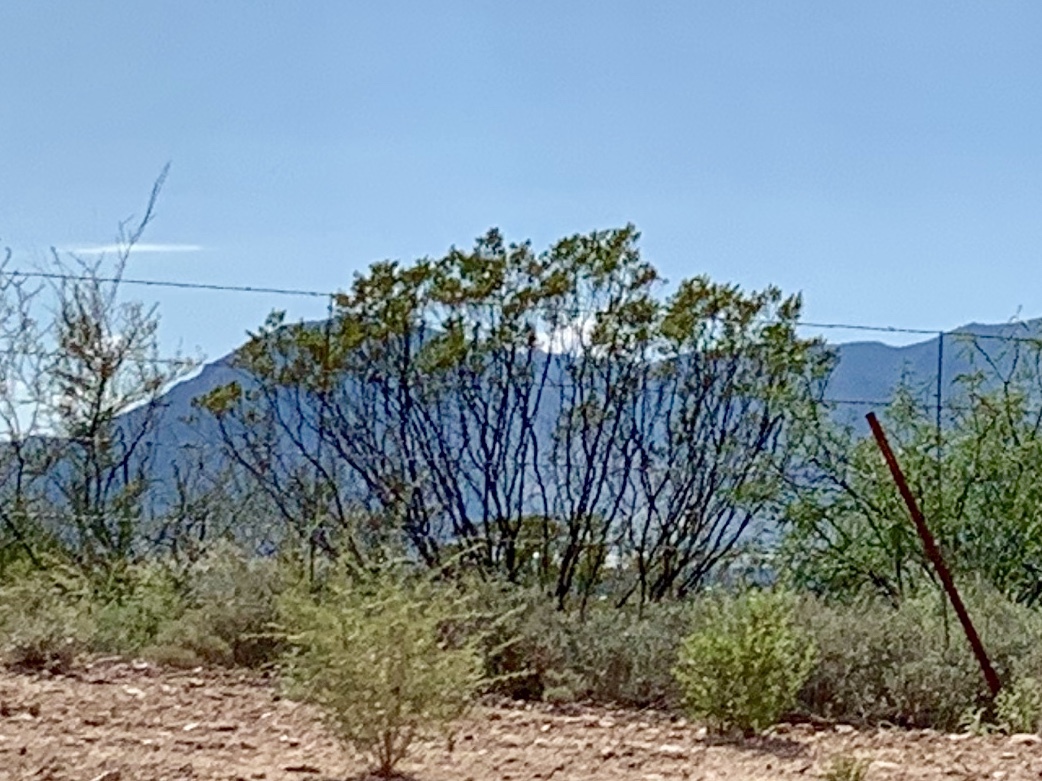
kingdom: Plantae
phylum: Tracheophyta
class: Magnoliopsida
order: Zygophyllales
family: Zygophyllaceae
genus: Larrea
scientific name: Larrea tridentata
